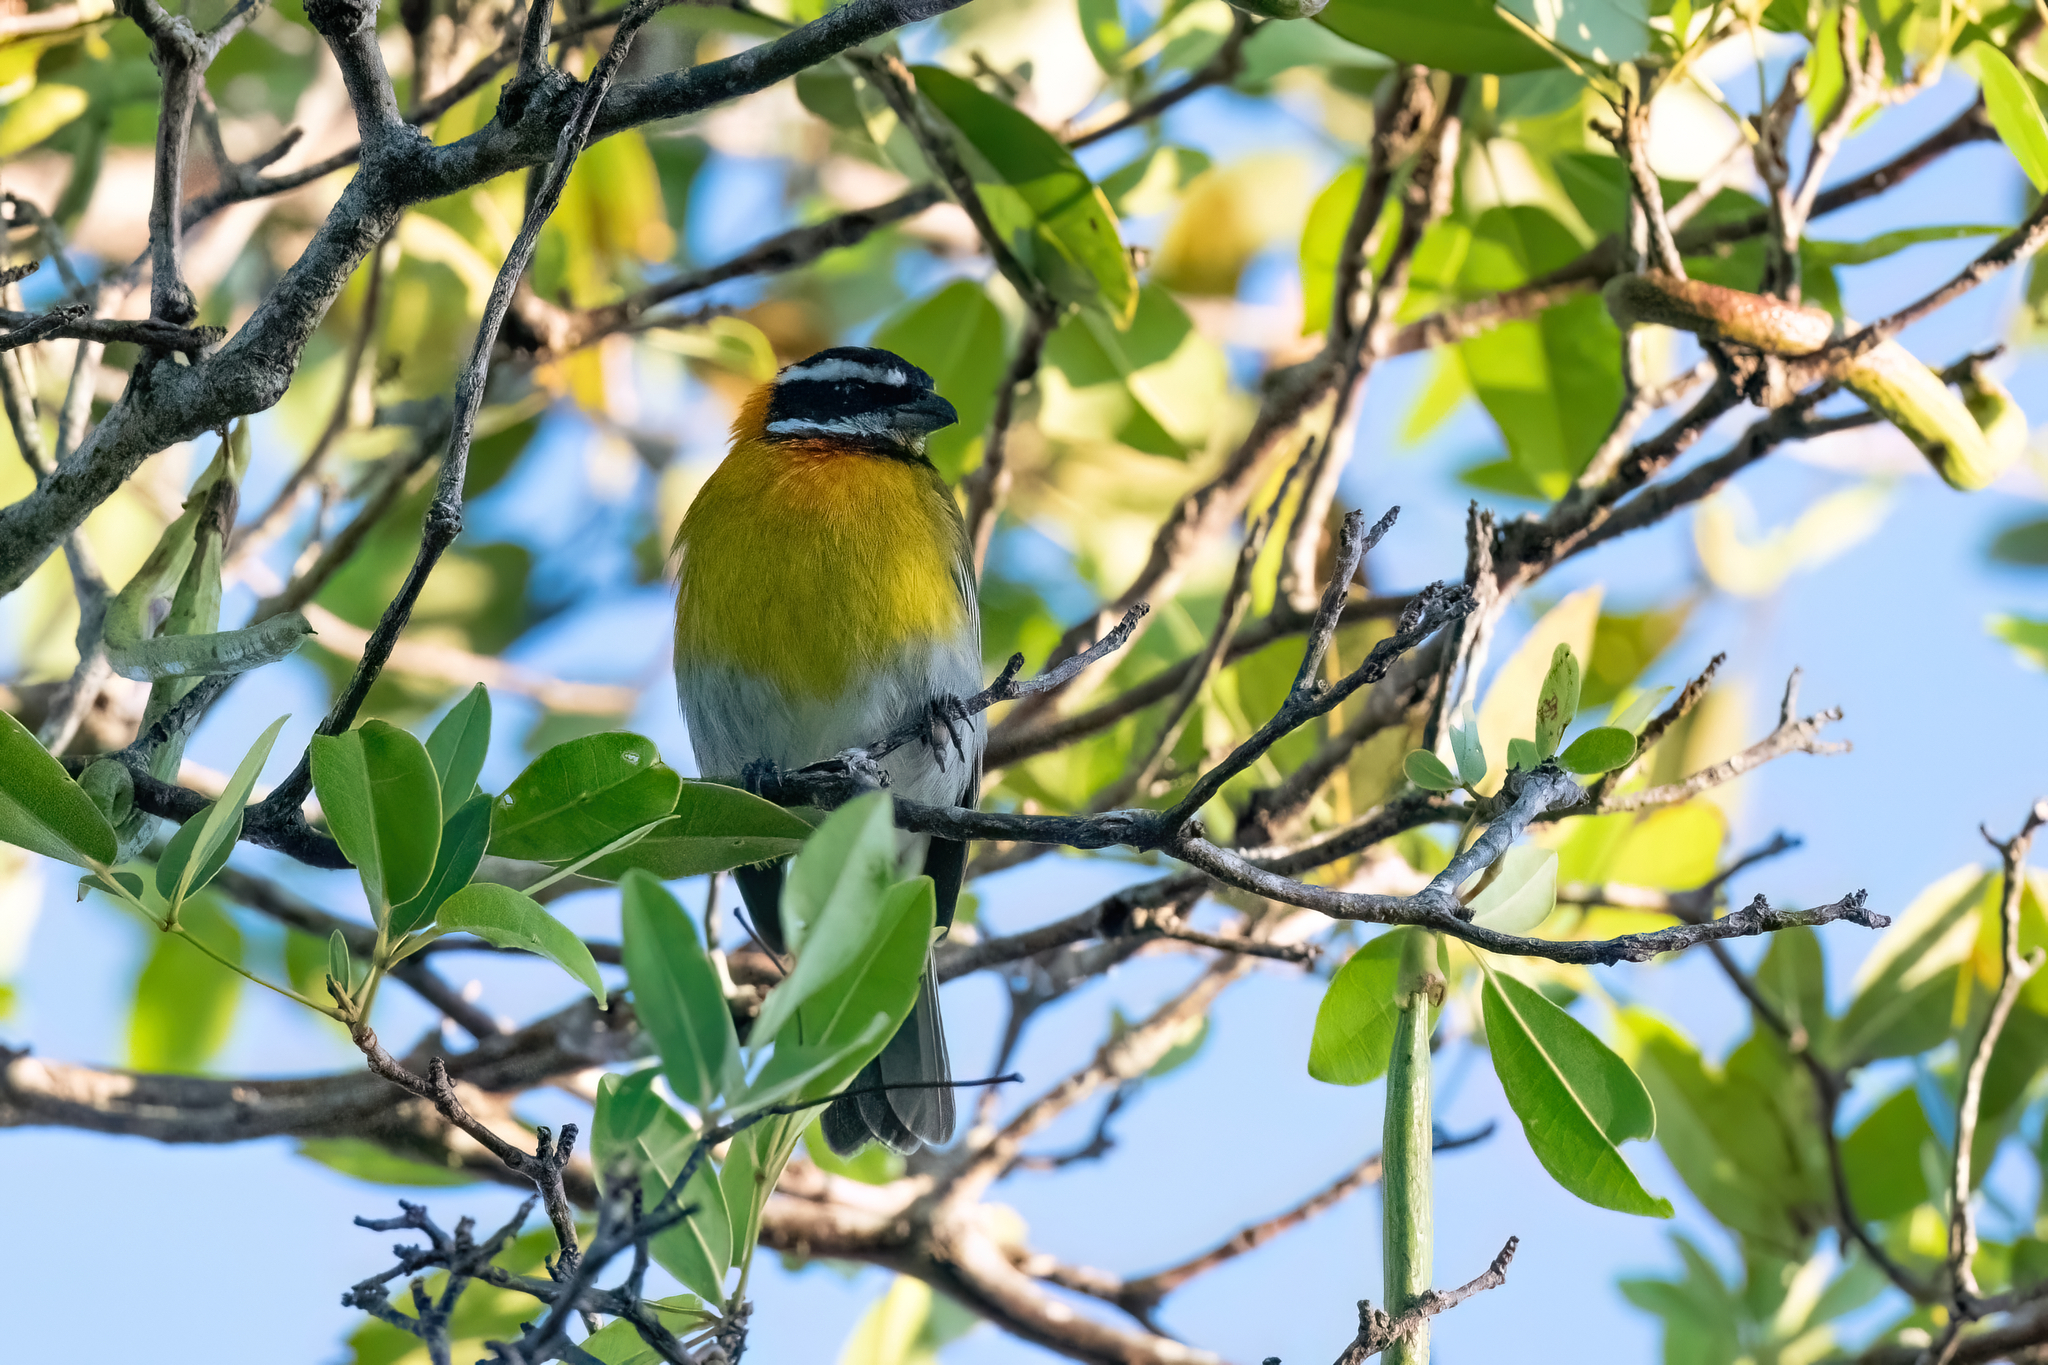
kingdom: Animalia
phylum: Chordata
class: Aves
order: Passeriformes
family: Spindalidae
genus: Spindalis
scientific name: Spindalis portoricensis
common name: Puerto rican spindalis
